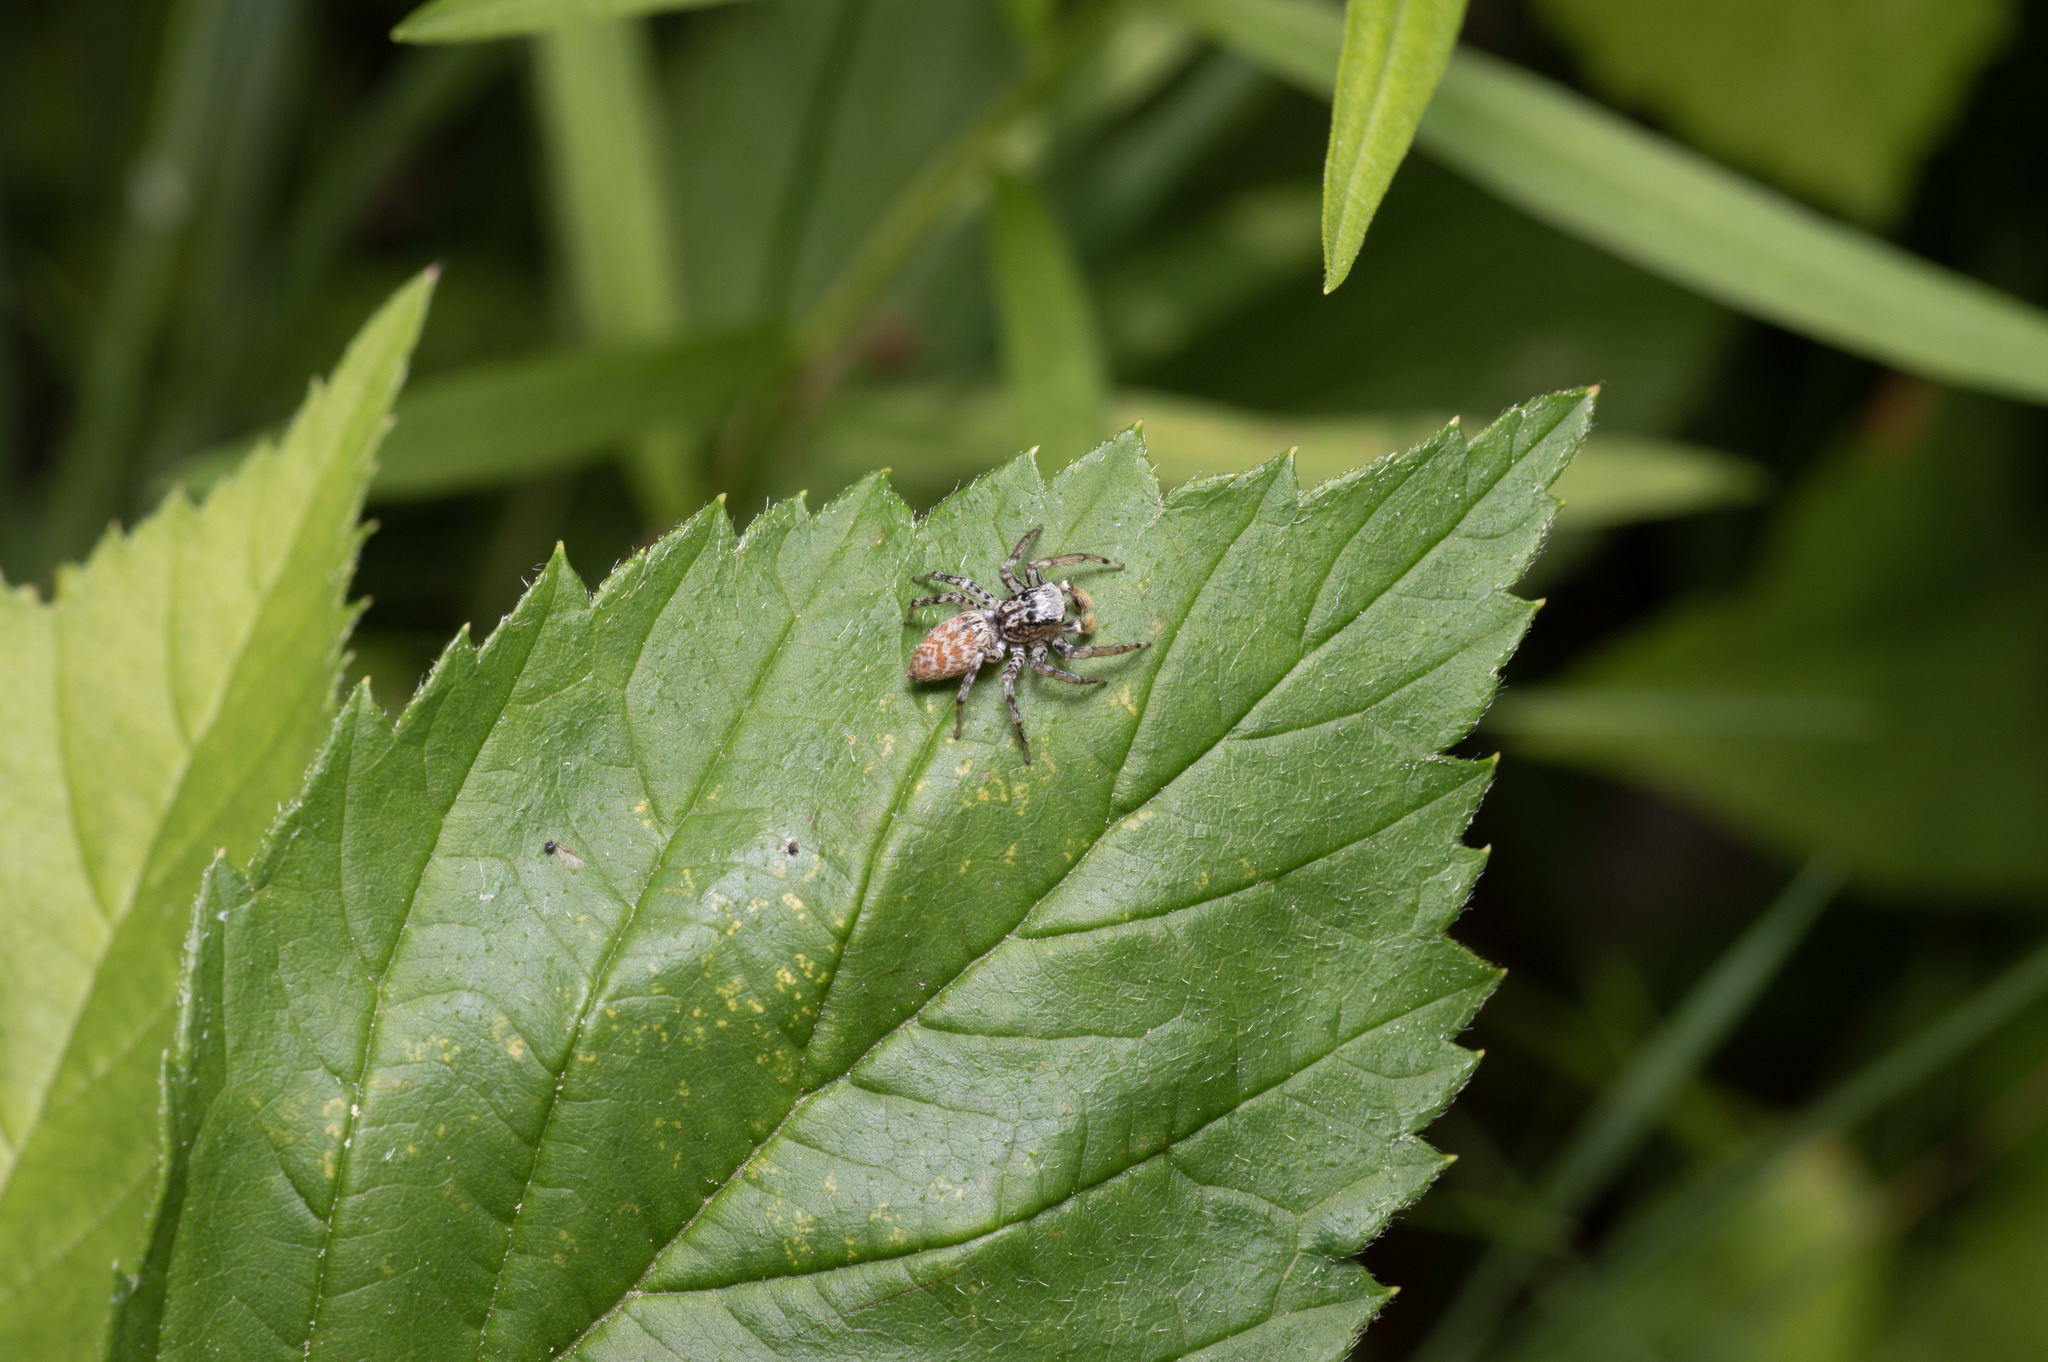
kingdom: Animalia
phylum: Arthropoda
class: Arachnida
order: Araneae
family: Salticidae
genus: Maevia
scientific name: Maevia inclemens
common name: Dimorphic jumper
